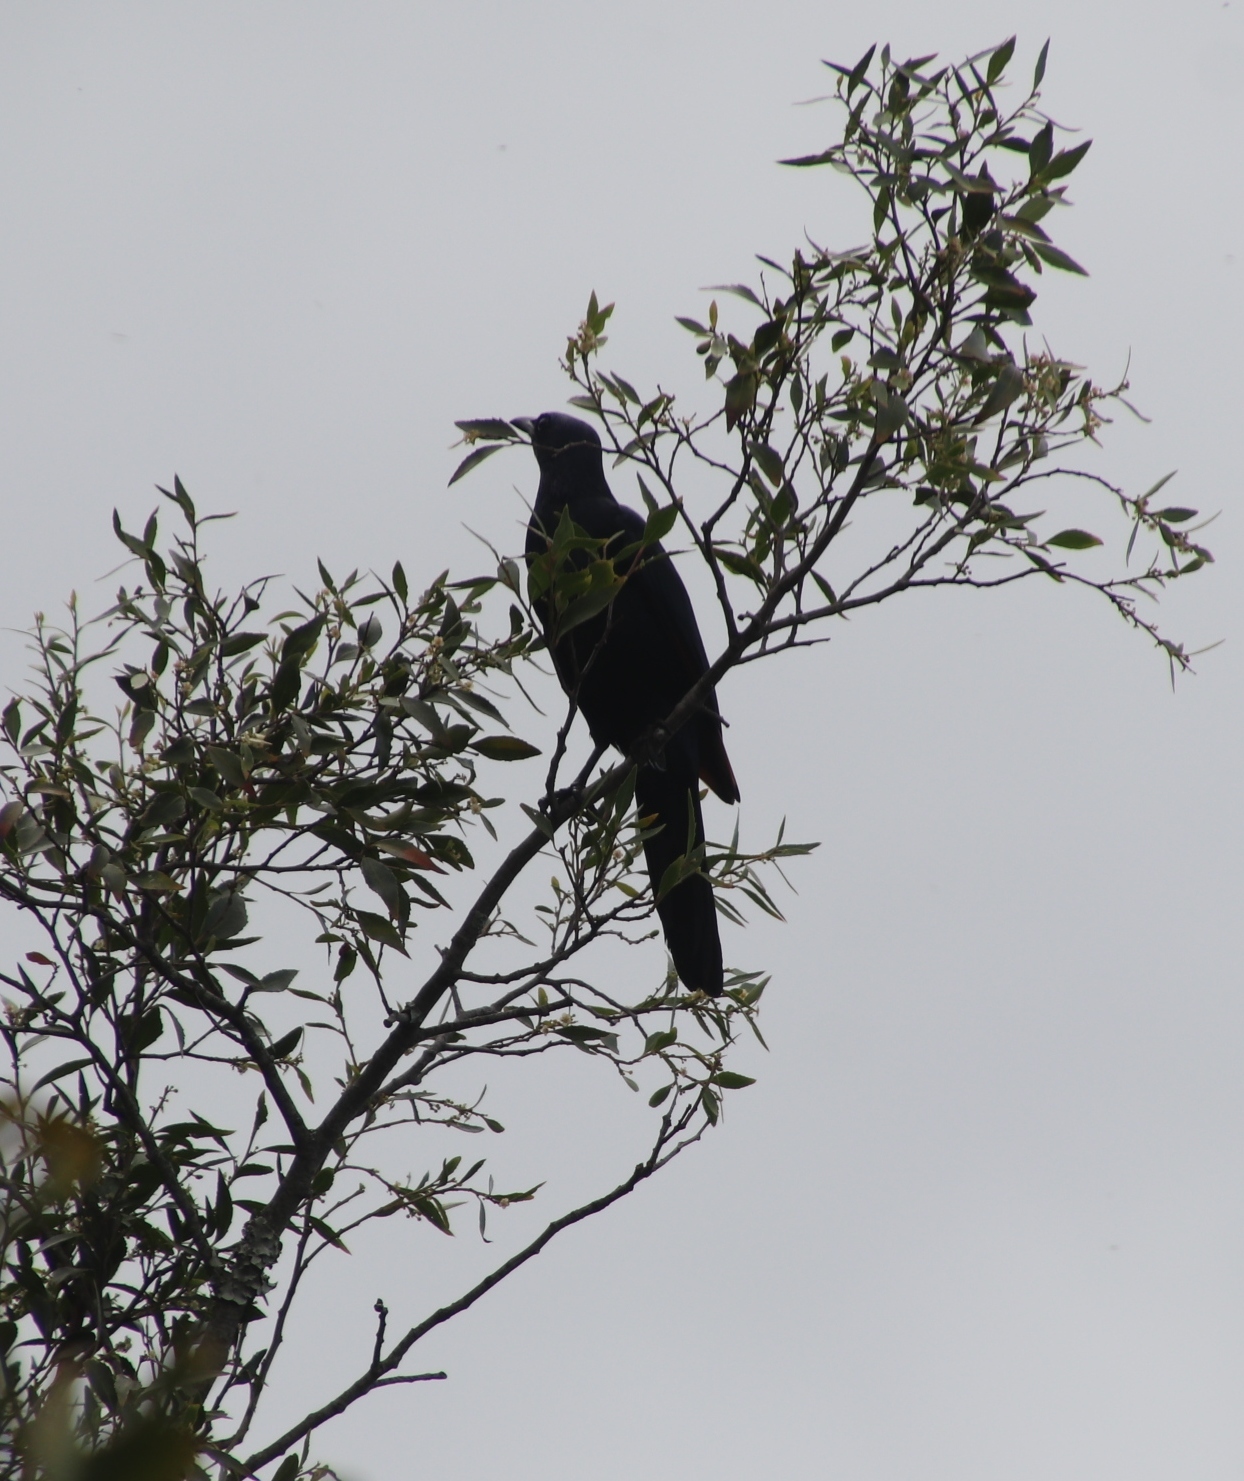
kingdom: Animalia
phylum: Chordata
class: Aves
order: Passeriformes
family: Sturnidae
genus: Onychognathus
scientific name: Onychognathus morio
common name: Red-winged starling
